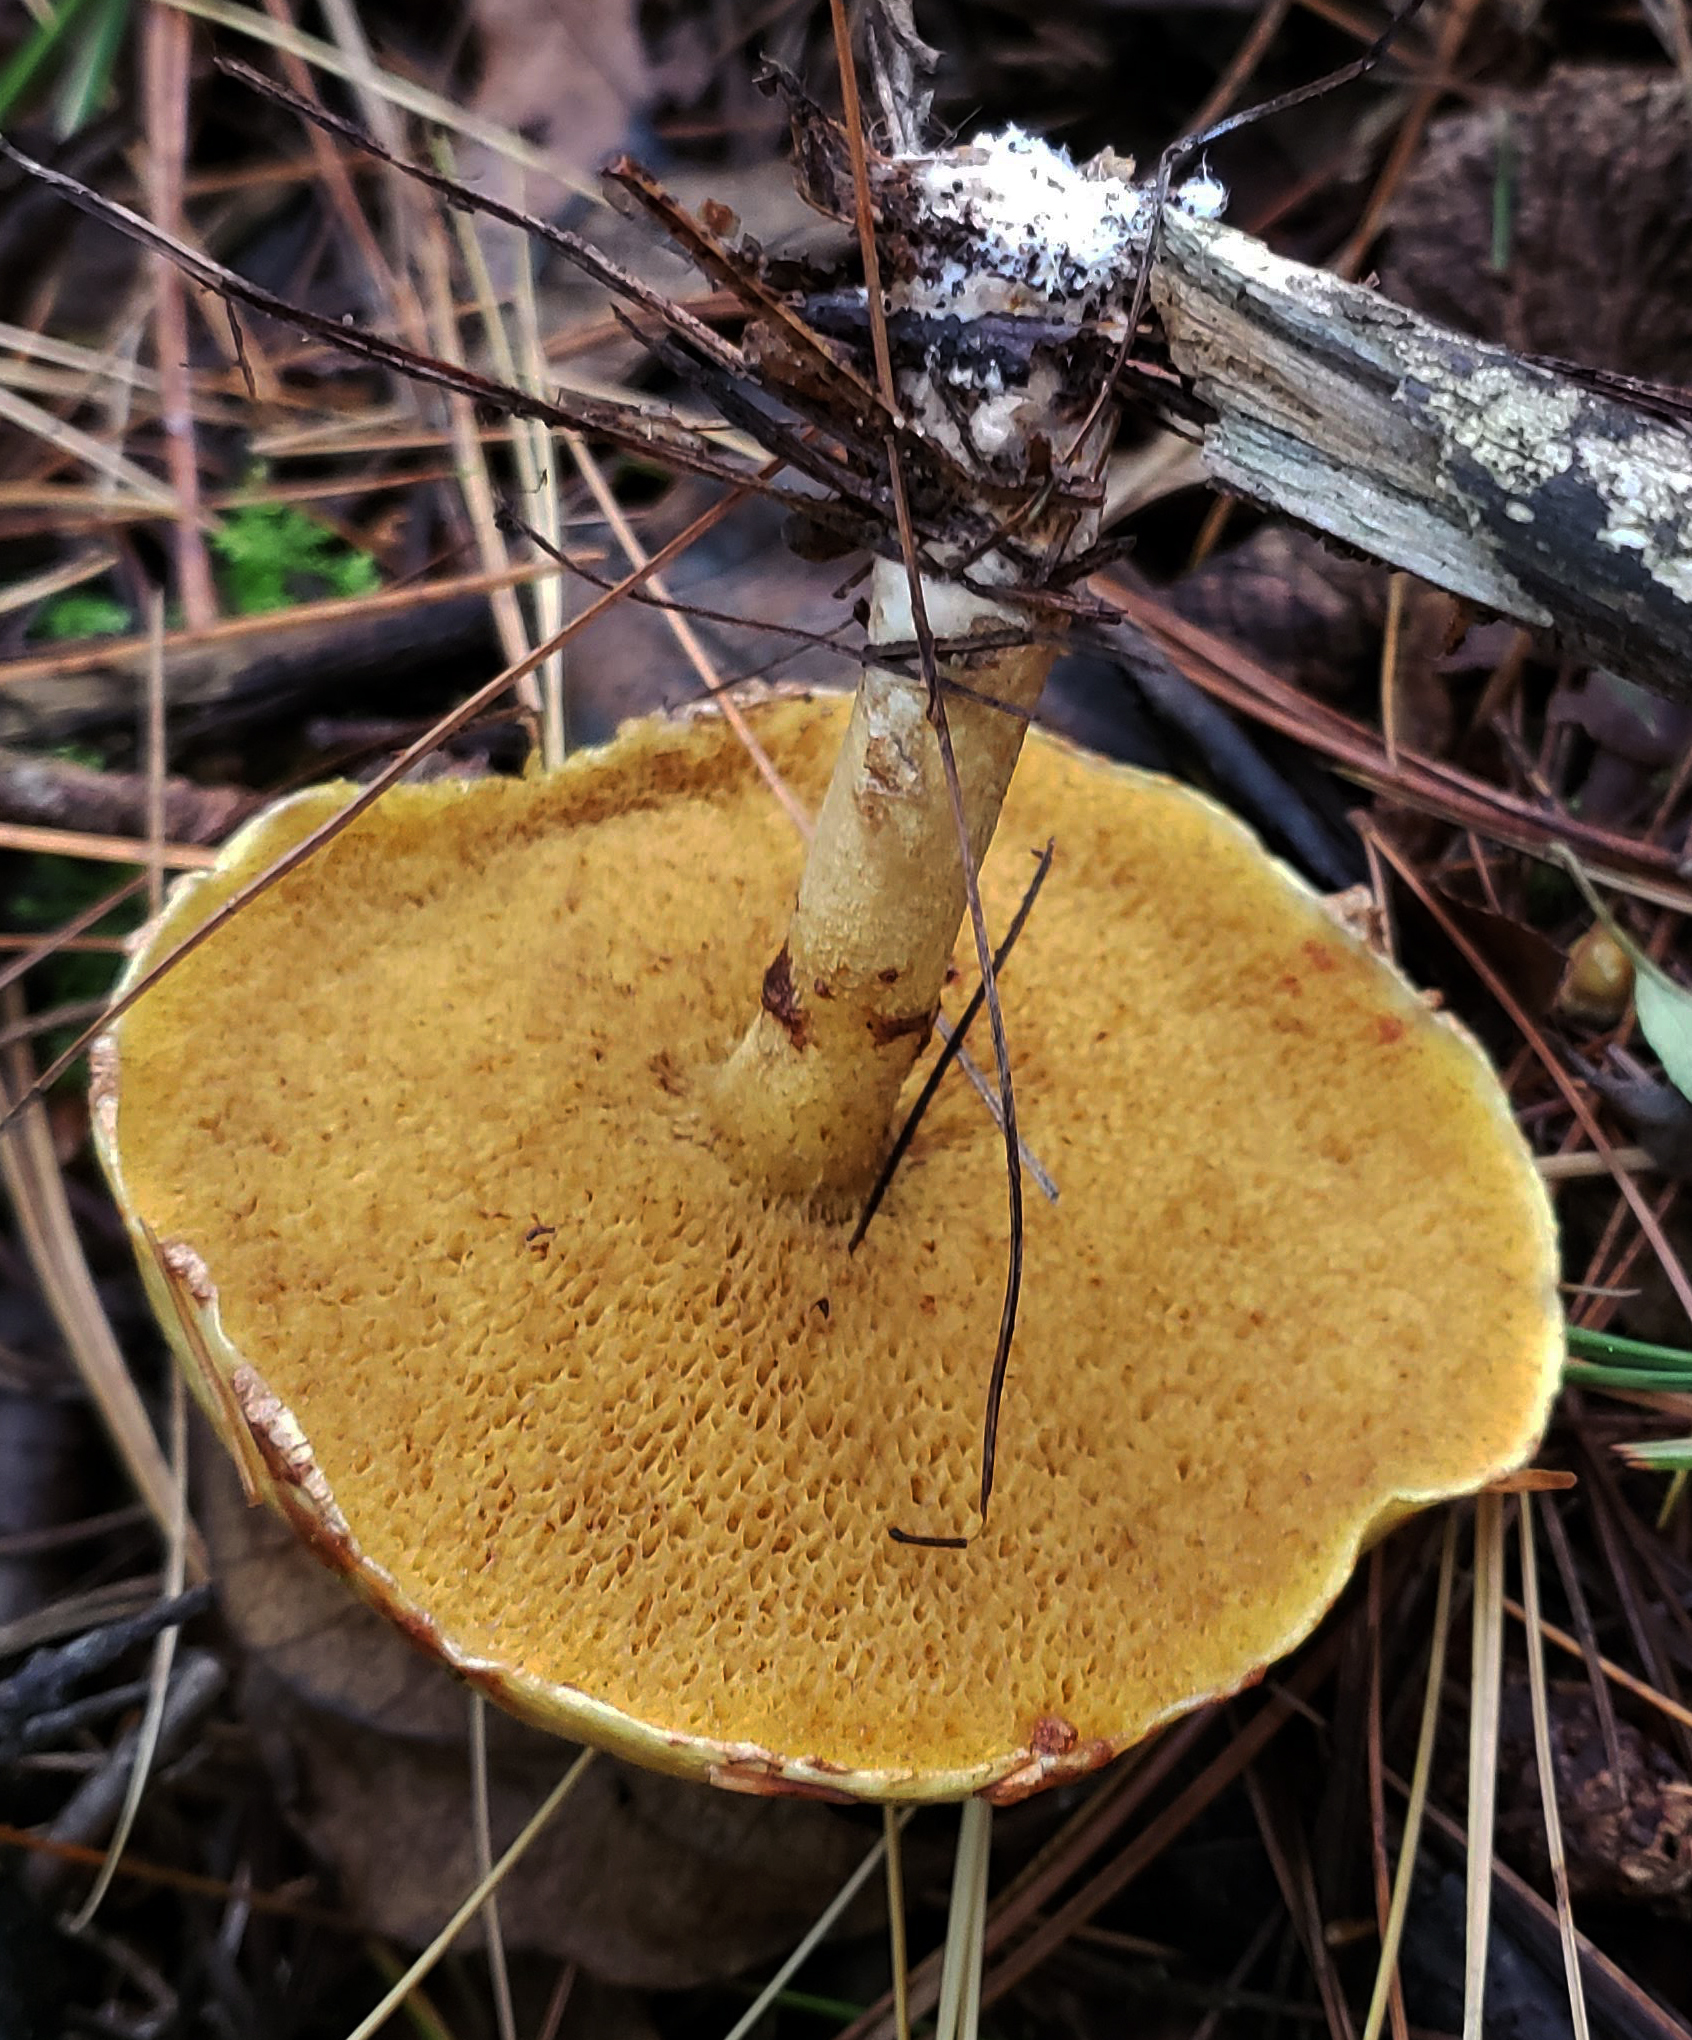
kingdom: Fungi
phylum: Basidiomycota
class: Agaricomycetes
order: Boletales
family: Suillaceae
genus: Suillus
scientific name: Suillus americanus
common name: Chicken fat mushroom
